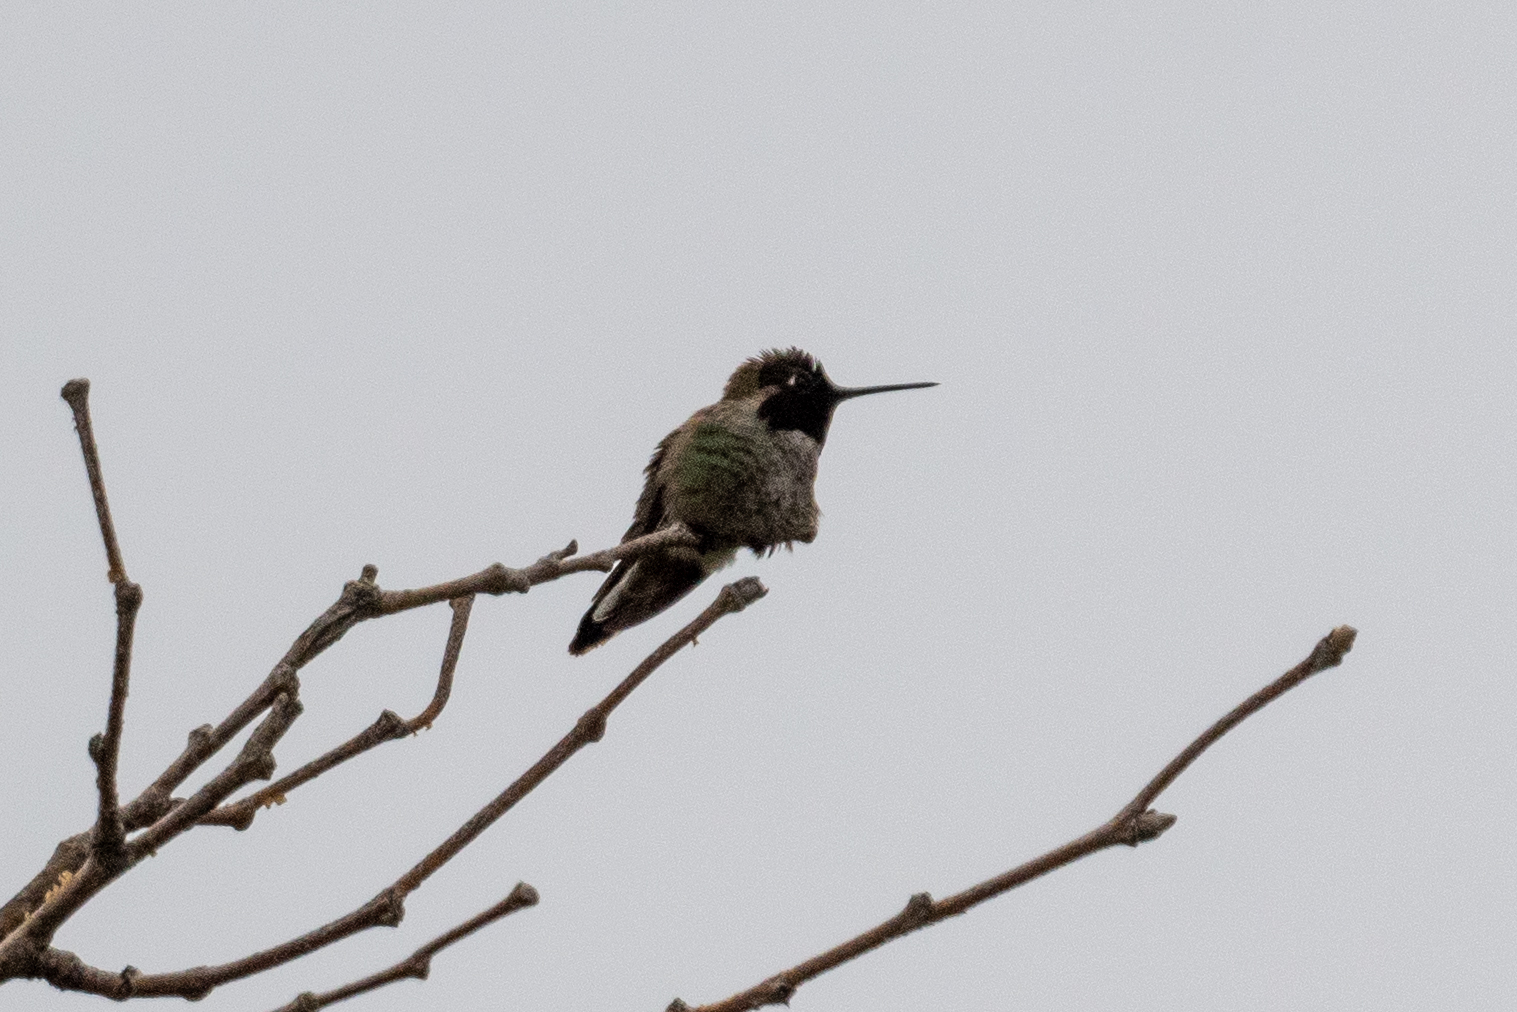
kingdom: Animalia
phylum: Chordata
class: Aves
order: Apodiformes
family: Trochilidae
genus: Calypte
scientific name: Calypte anna
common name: Anna's hummingbird
